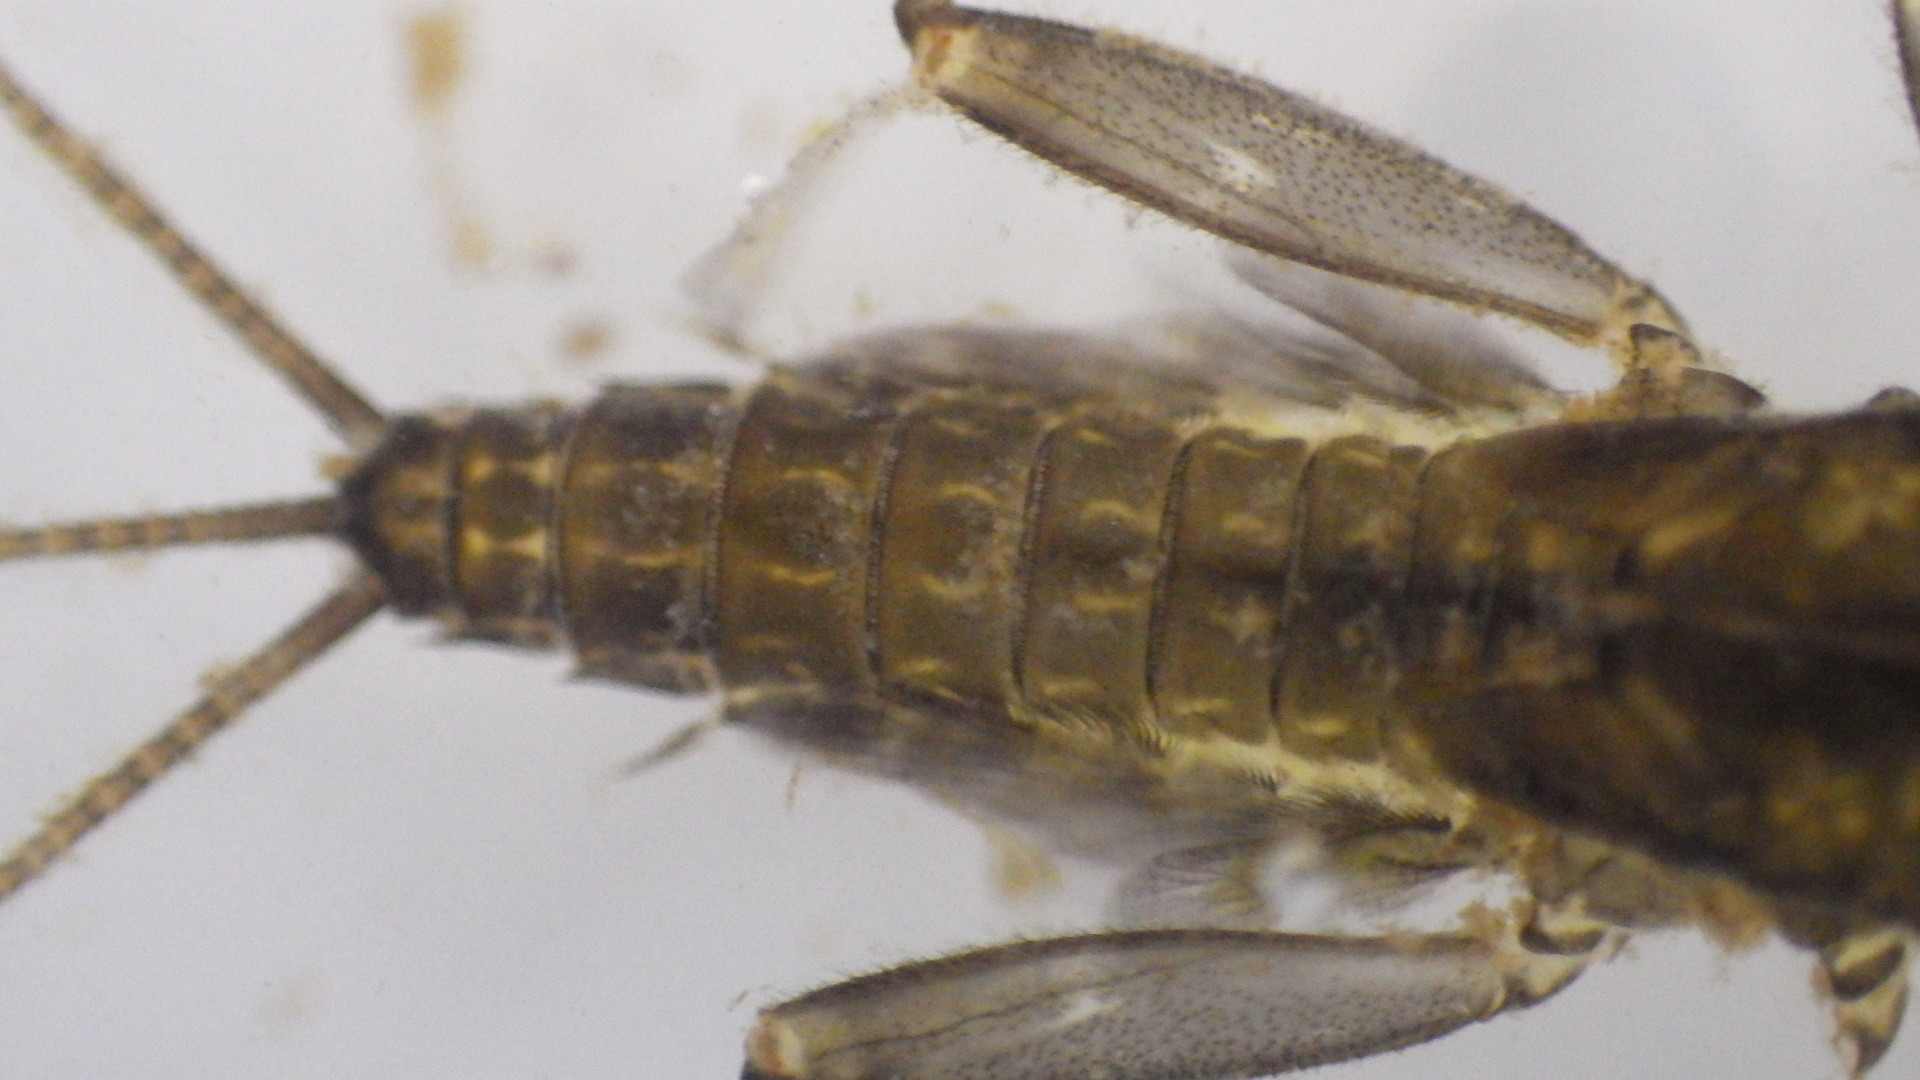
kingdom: Animalia
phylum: Arthropoda
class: Insecta
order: Ephemeroptera
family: Heptageniidae
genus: Stenacron
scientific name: Stenacron interpunctatum
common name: Orange cahill
